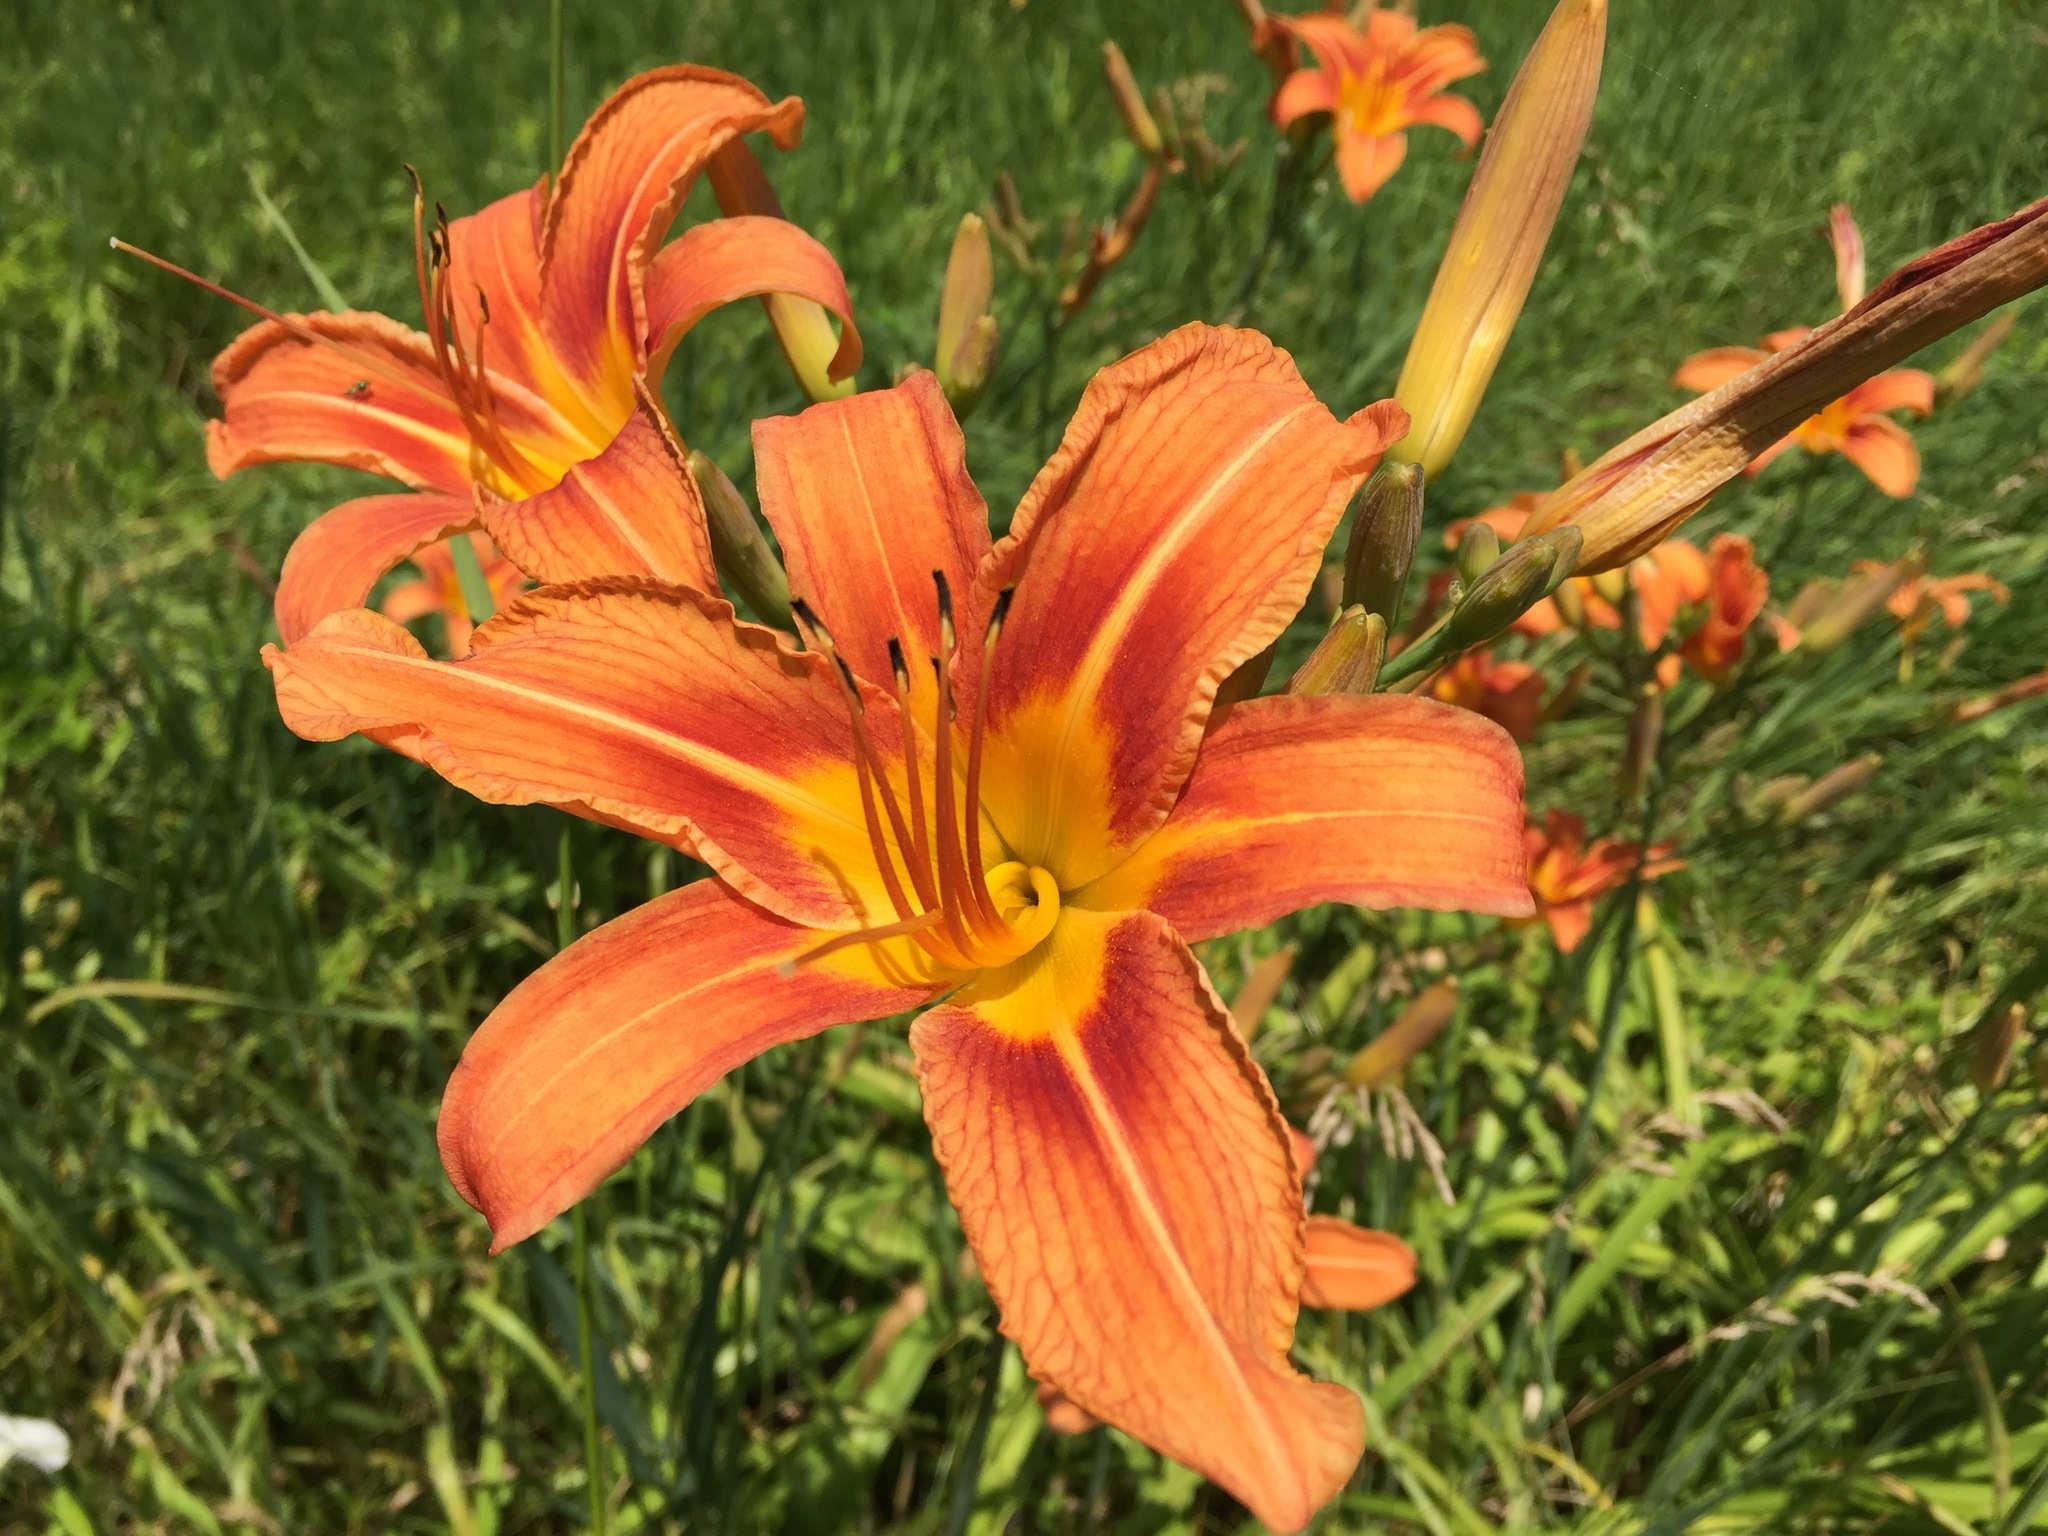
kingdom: Plantae
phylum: Tracheophyta
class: Liliopsida
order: Asparagales
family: Asphodelaceae
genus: Hemerocallis
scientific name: Hemerocallis fulva
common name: Orange day-lily
